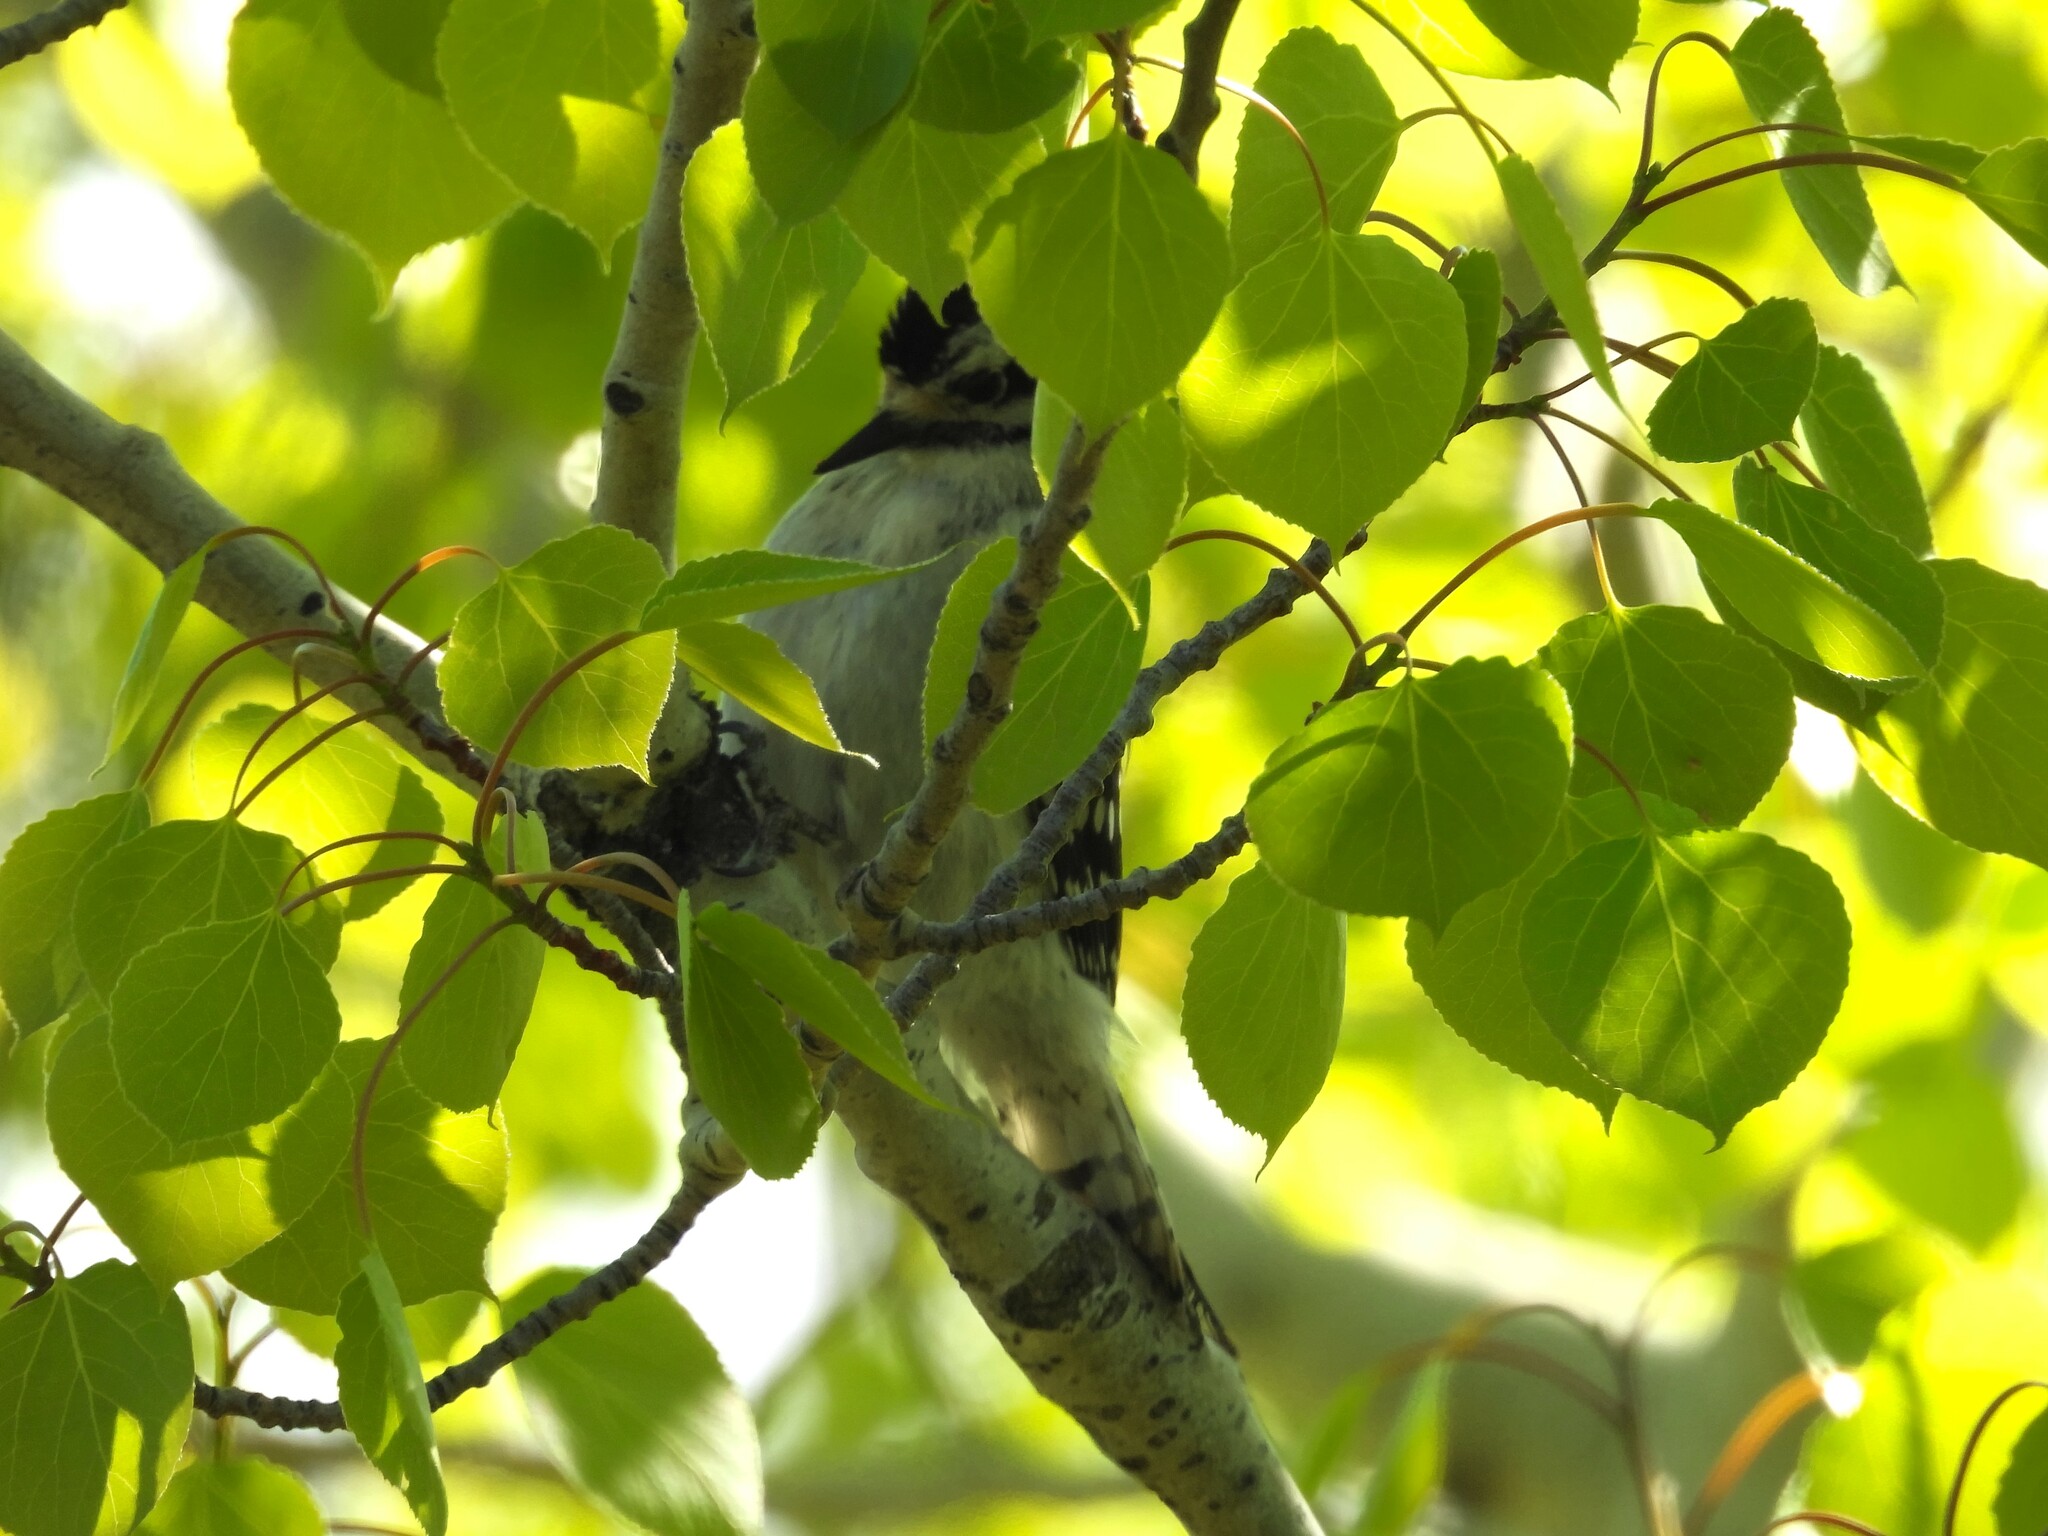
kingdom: Animalia
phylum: Chordata
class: Aves
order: Piciformes
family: Picidae
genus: Dryobates
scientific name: Dryobates pubescens
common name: Downy woodpecker
